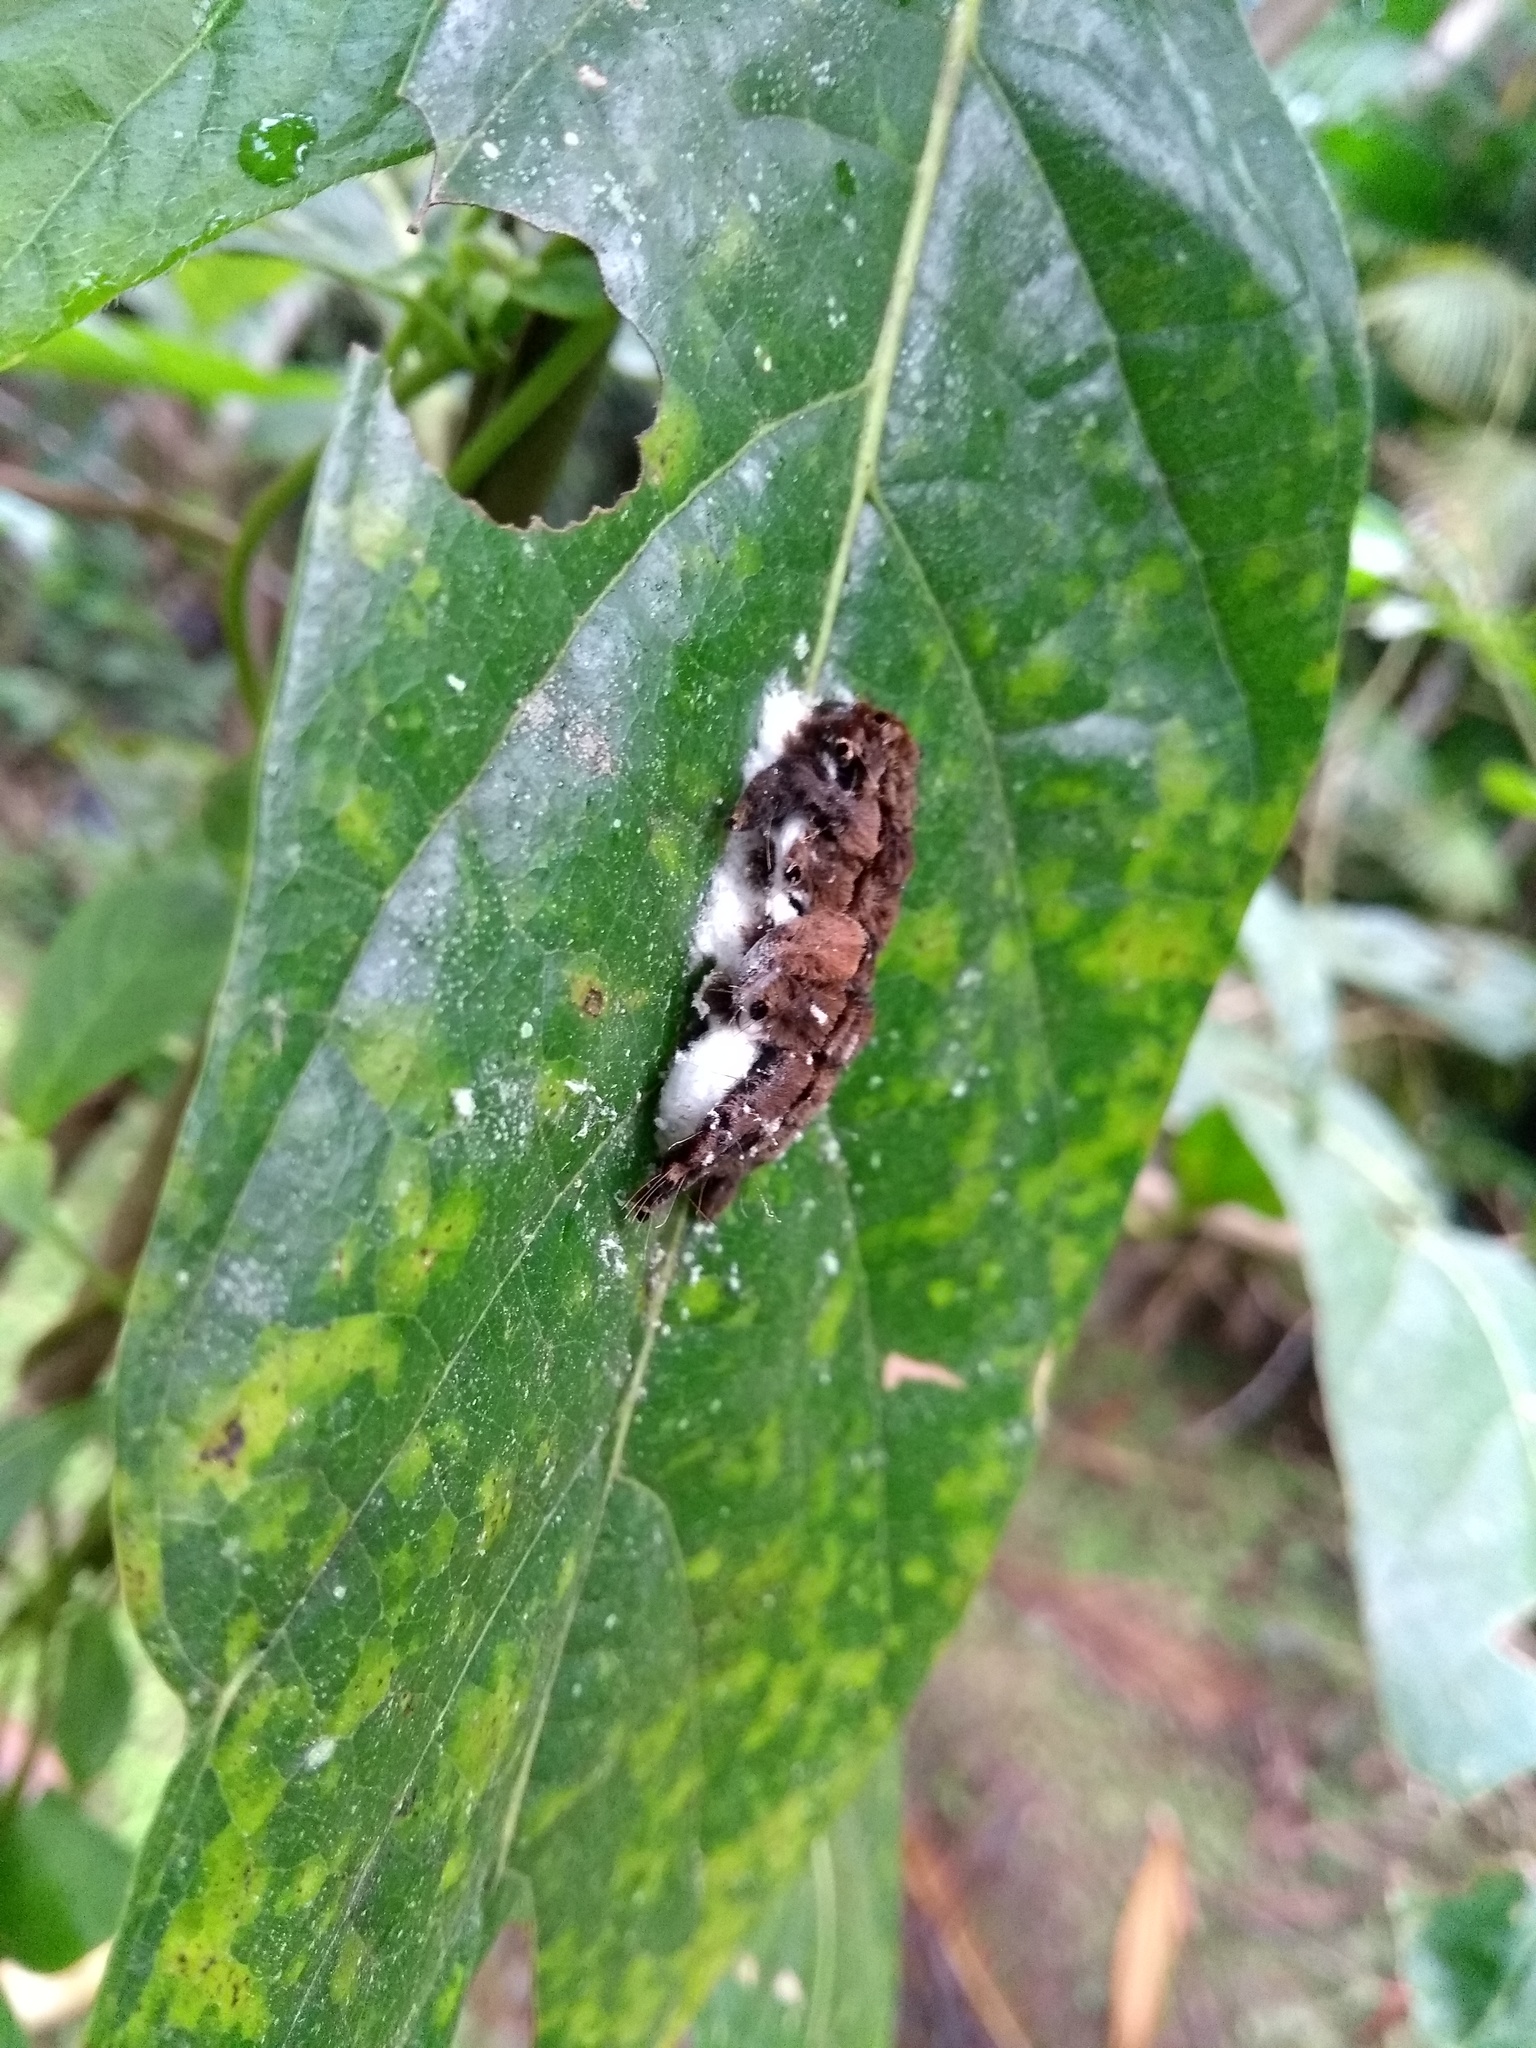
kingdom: Animalia
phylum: Arthropoda
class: Insecta
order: Lepidoptera
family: Limacodidae
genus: Phobetron
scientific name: Phobetron hipparchia
